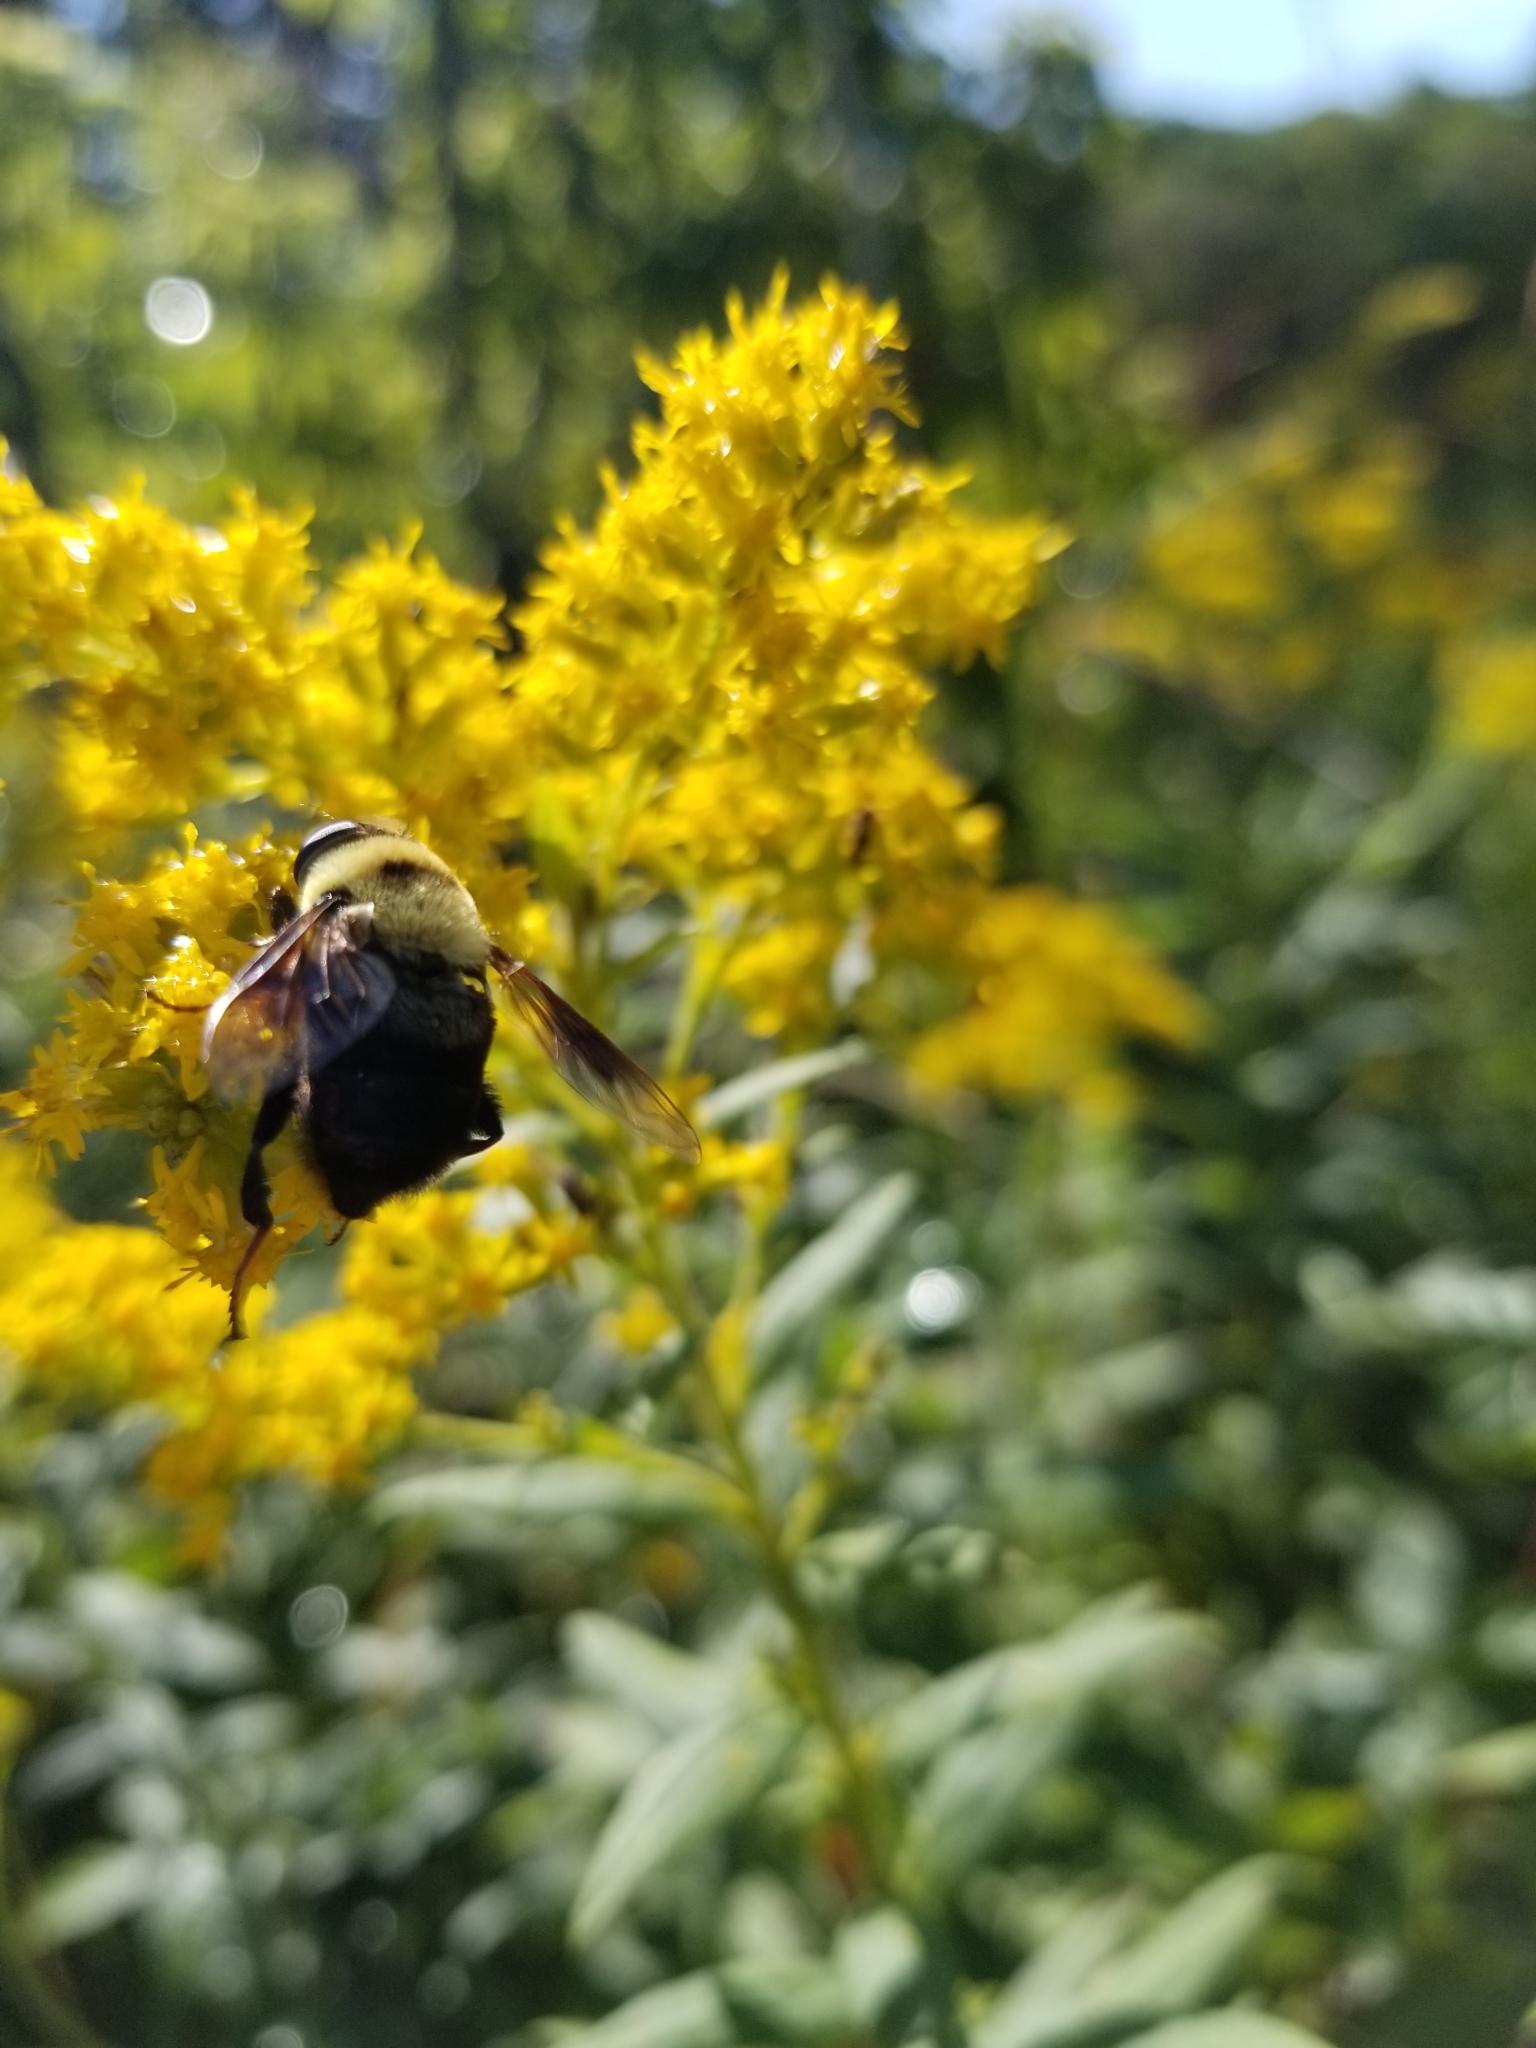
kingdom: Animalia
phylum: Arthropoda
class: Insecta
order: Diptera
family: Syrphidae
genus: Eristalis
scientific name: Eristalis flavipes
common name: Orange-legged drone fly
